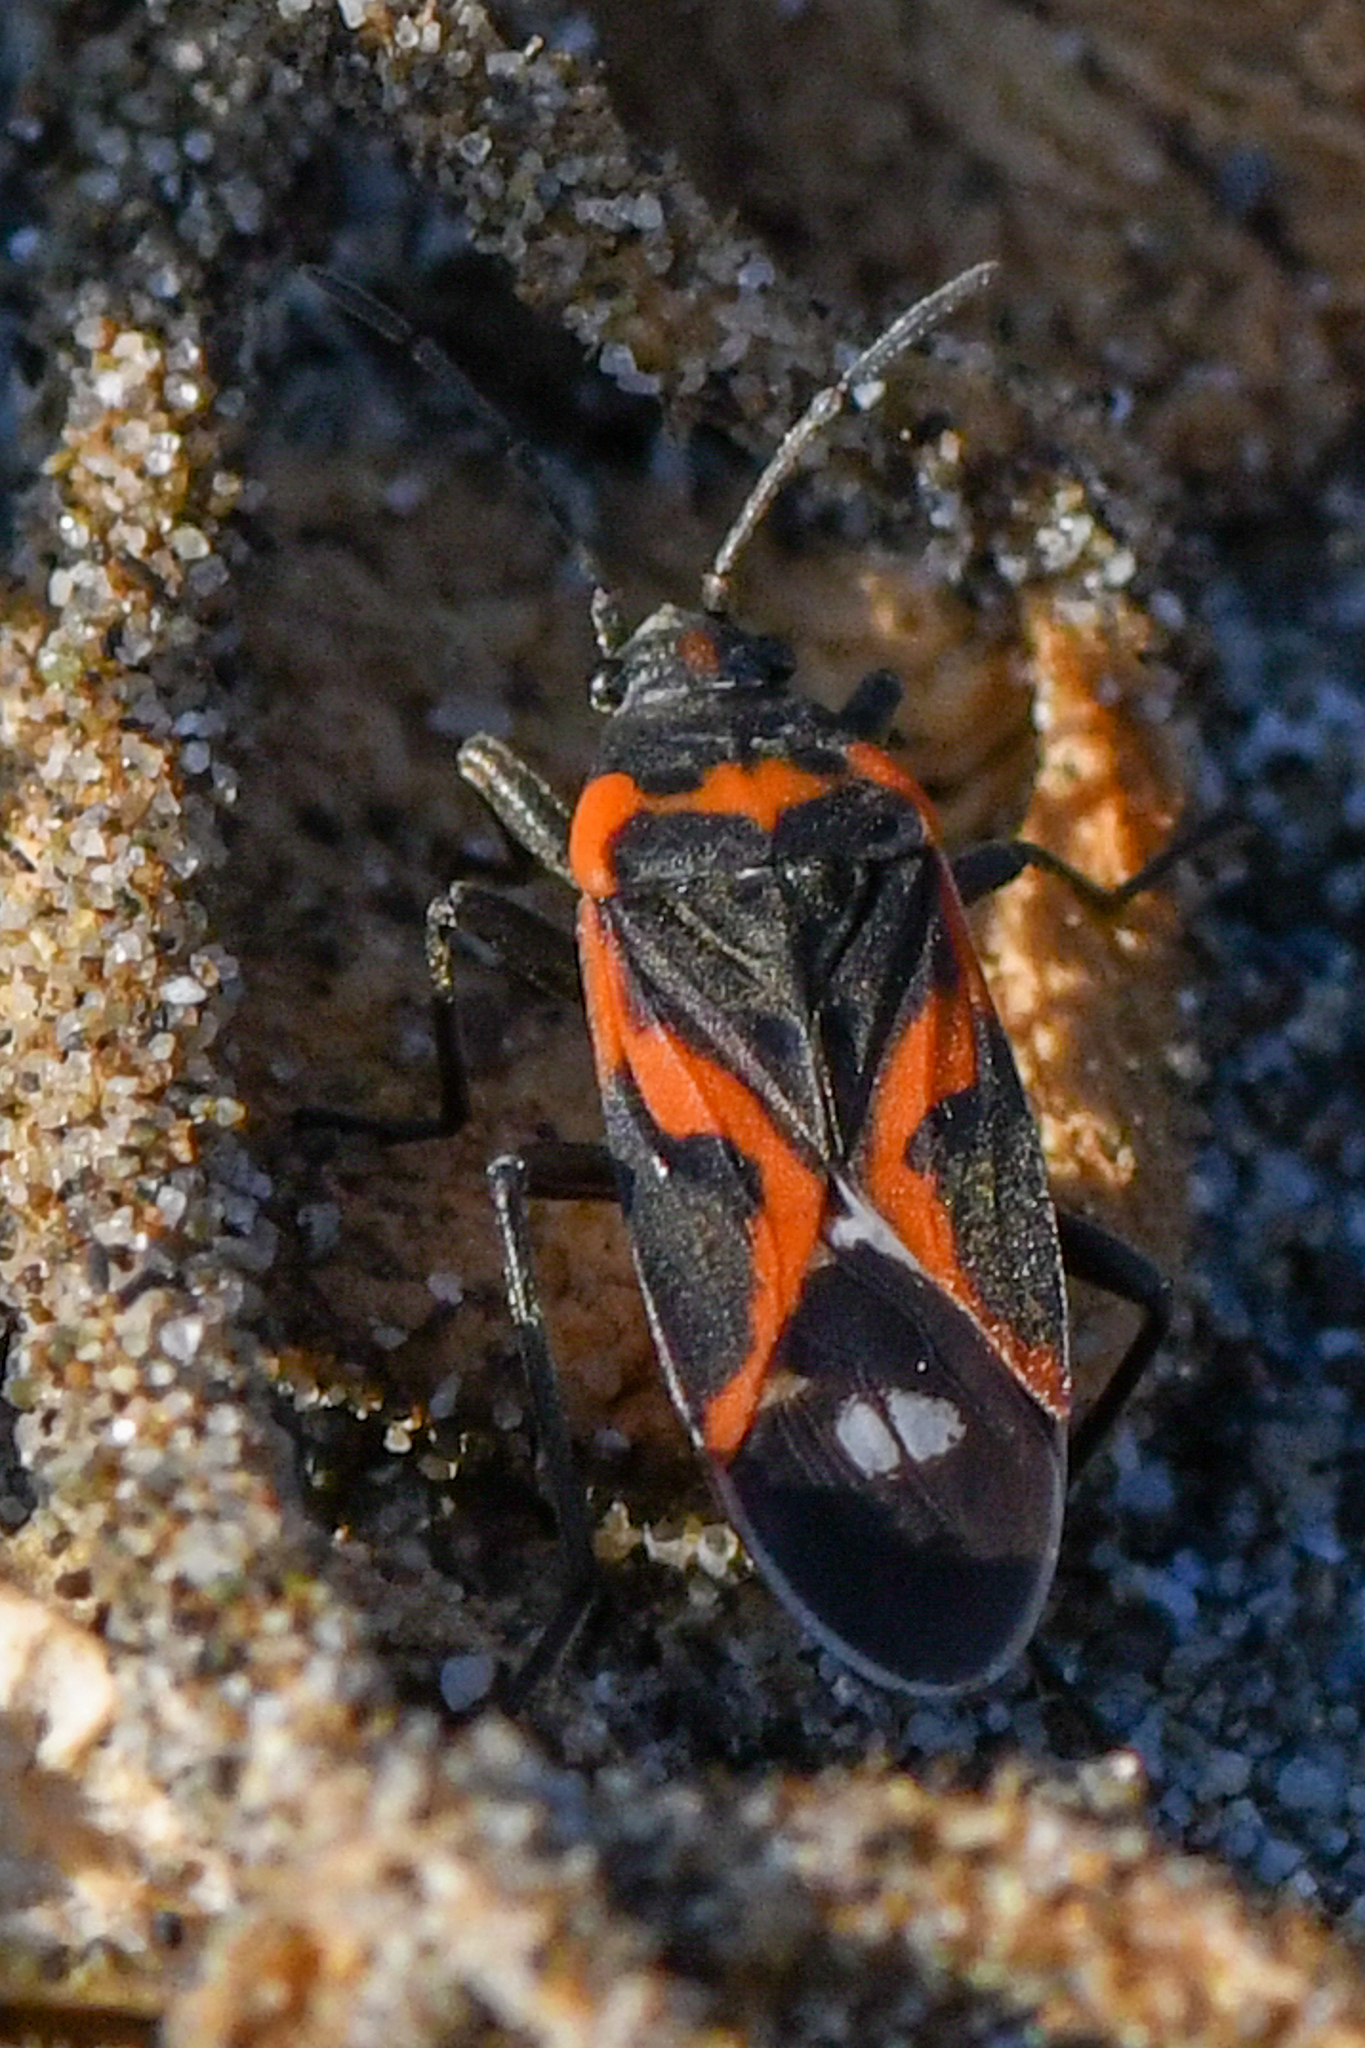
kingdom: Animalia
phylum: Arthropoda
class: Insecta
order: Hemiptera
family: Lygaeidae
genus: Lygaeus
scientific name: Lygaeus kalmii
